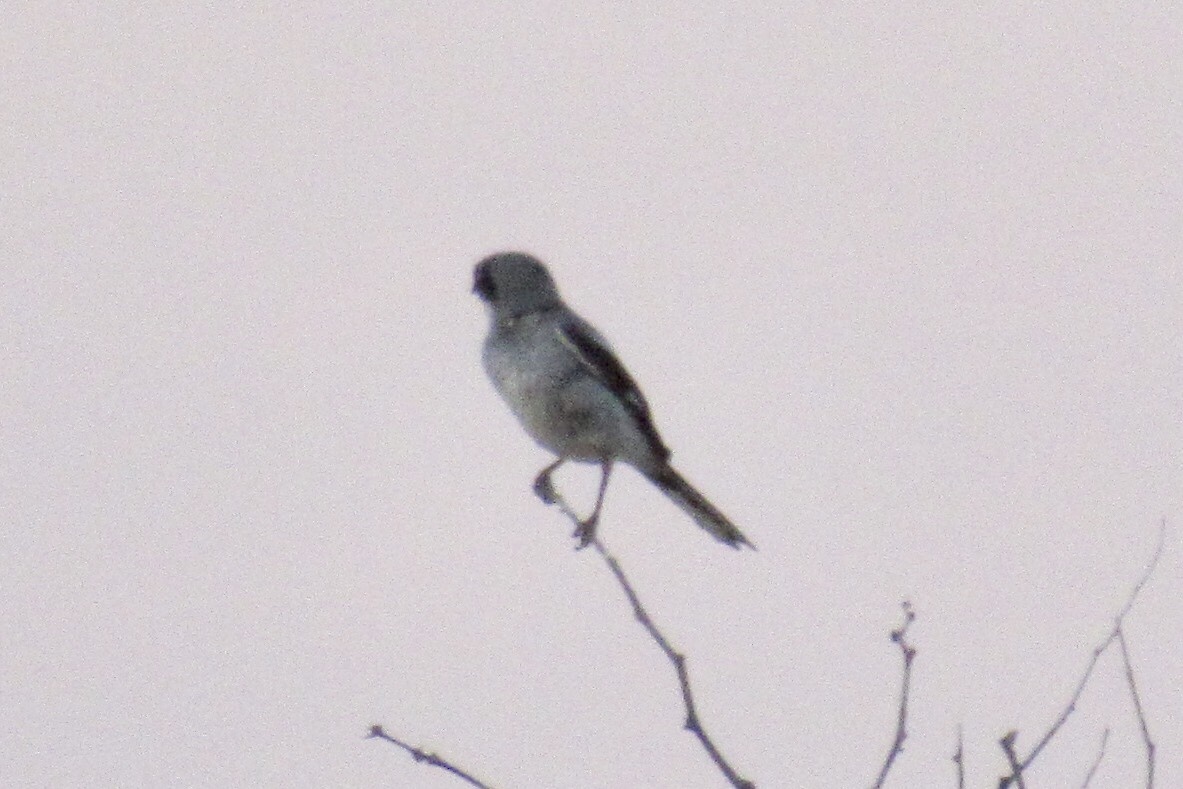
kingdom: Animalia
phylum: Chordata
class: Aves
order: Passeriformes
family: Laniidae
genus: Lanius
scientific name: Lanius ludovicianus
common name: Loggerhead shrike
